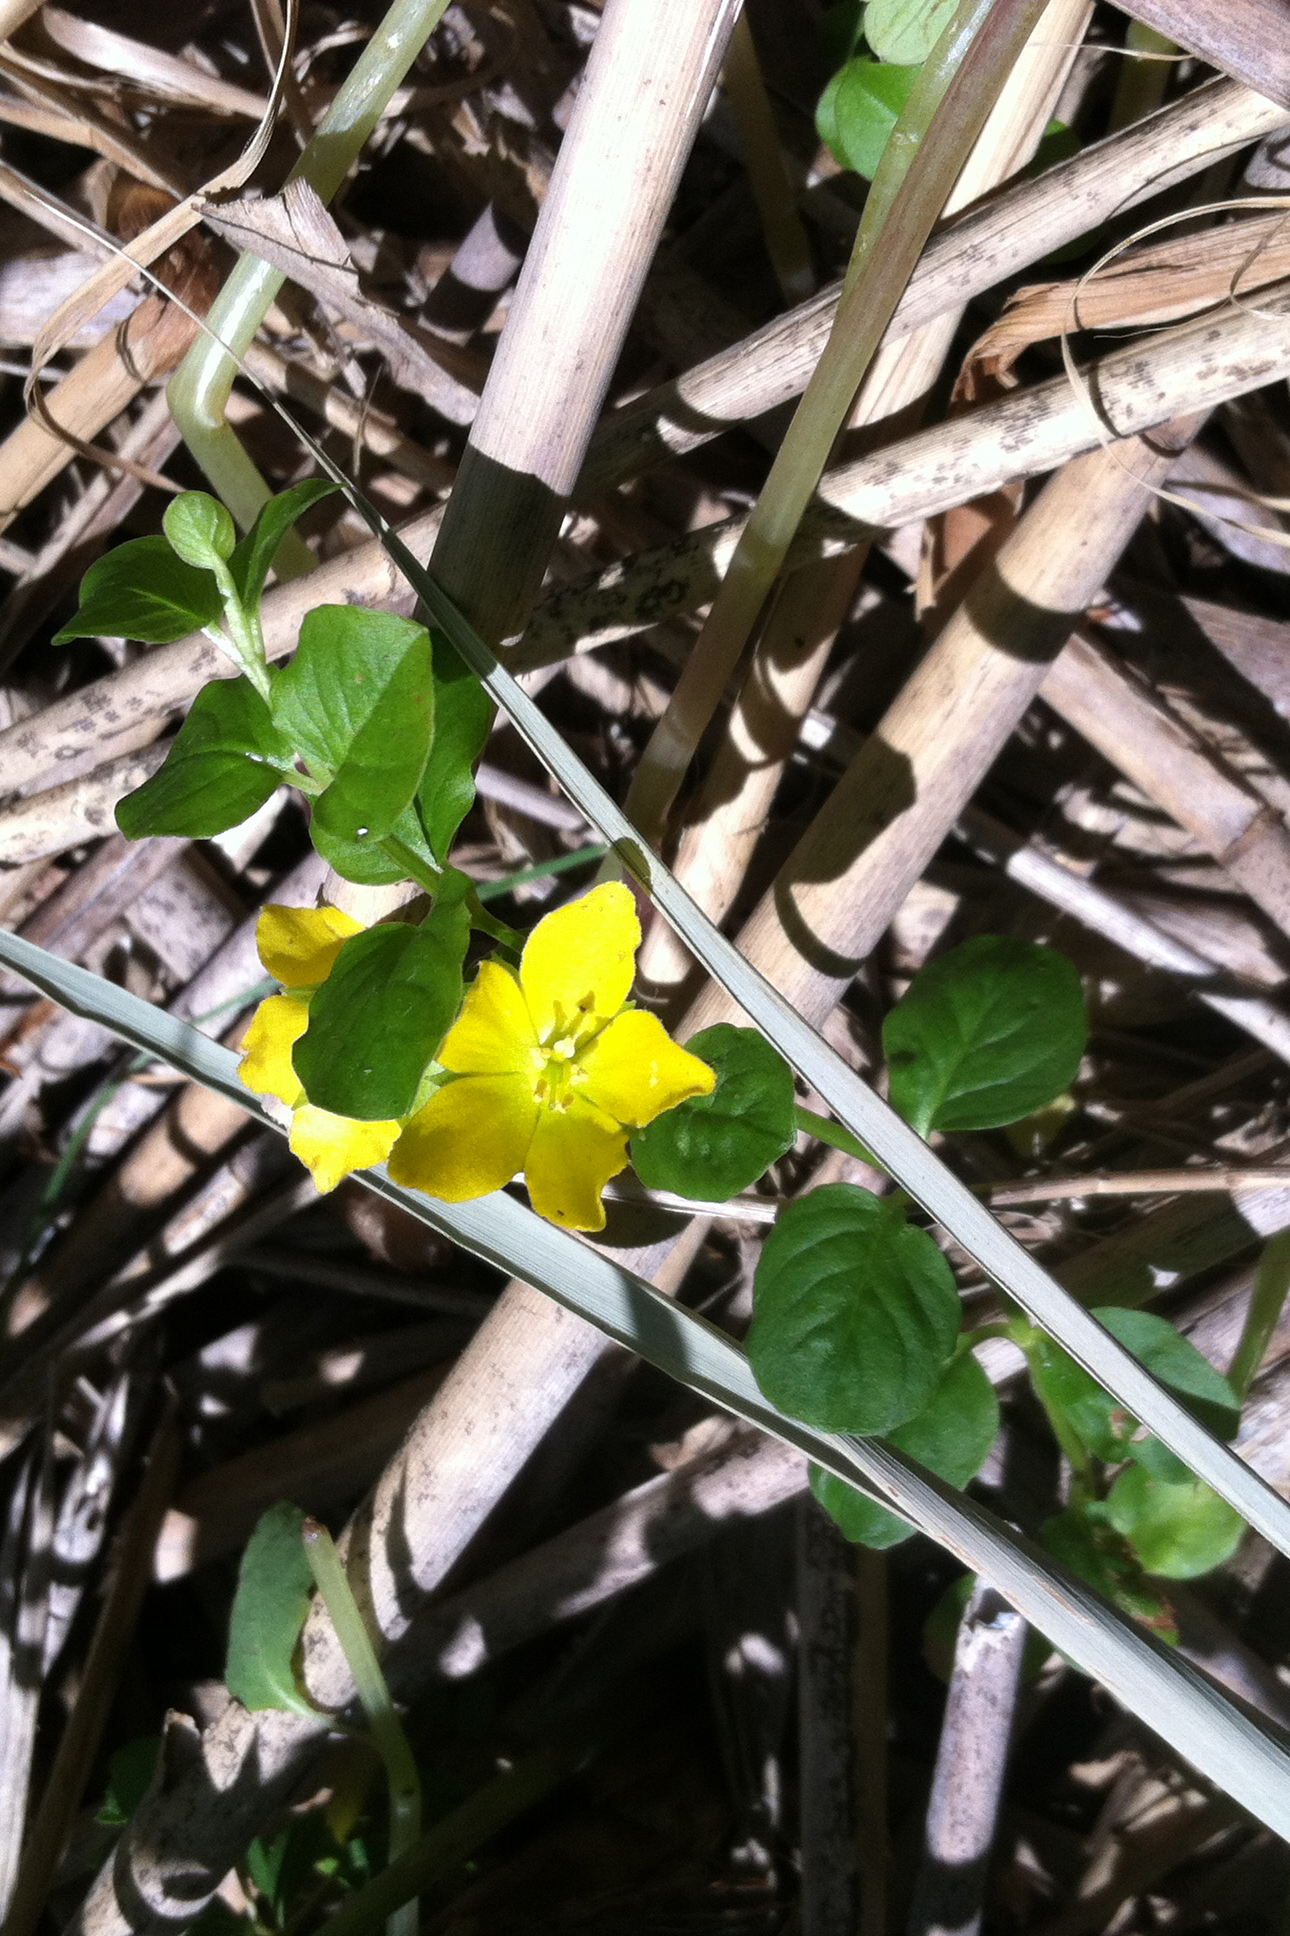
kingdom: Plantae
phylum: Tracheophyta
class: Magnoliopsida
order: Ericales
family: Primulaceae
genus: Lysimachia
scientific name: Lysimachia nummularia
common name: Moneywort
